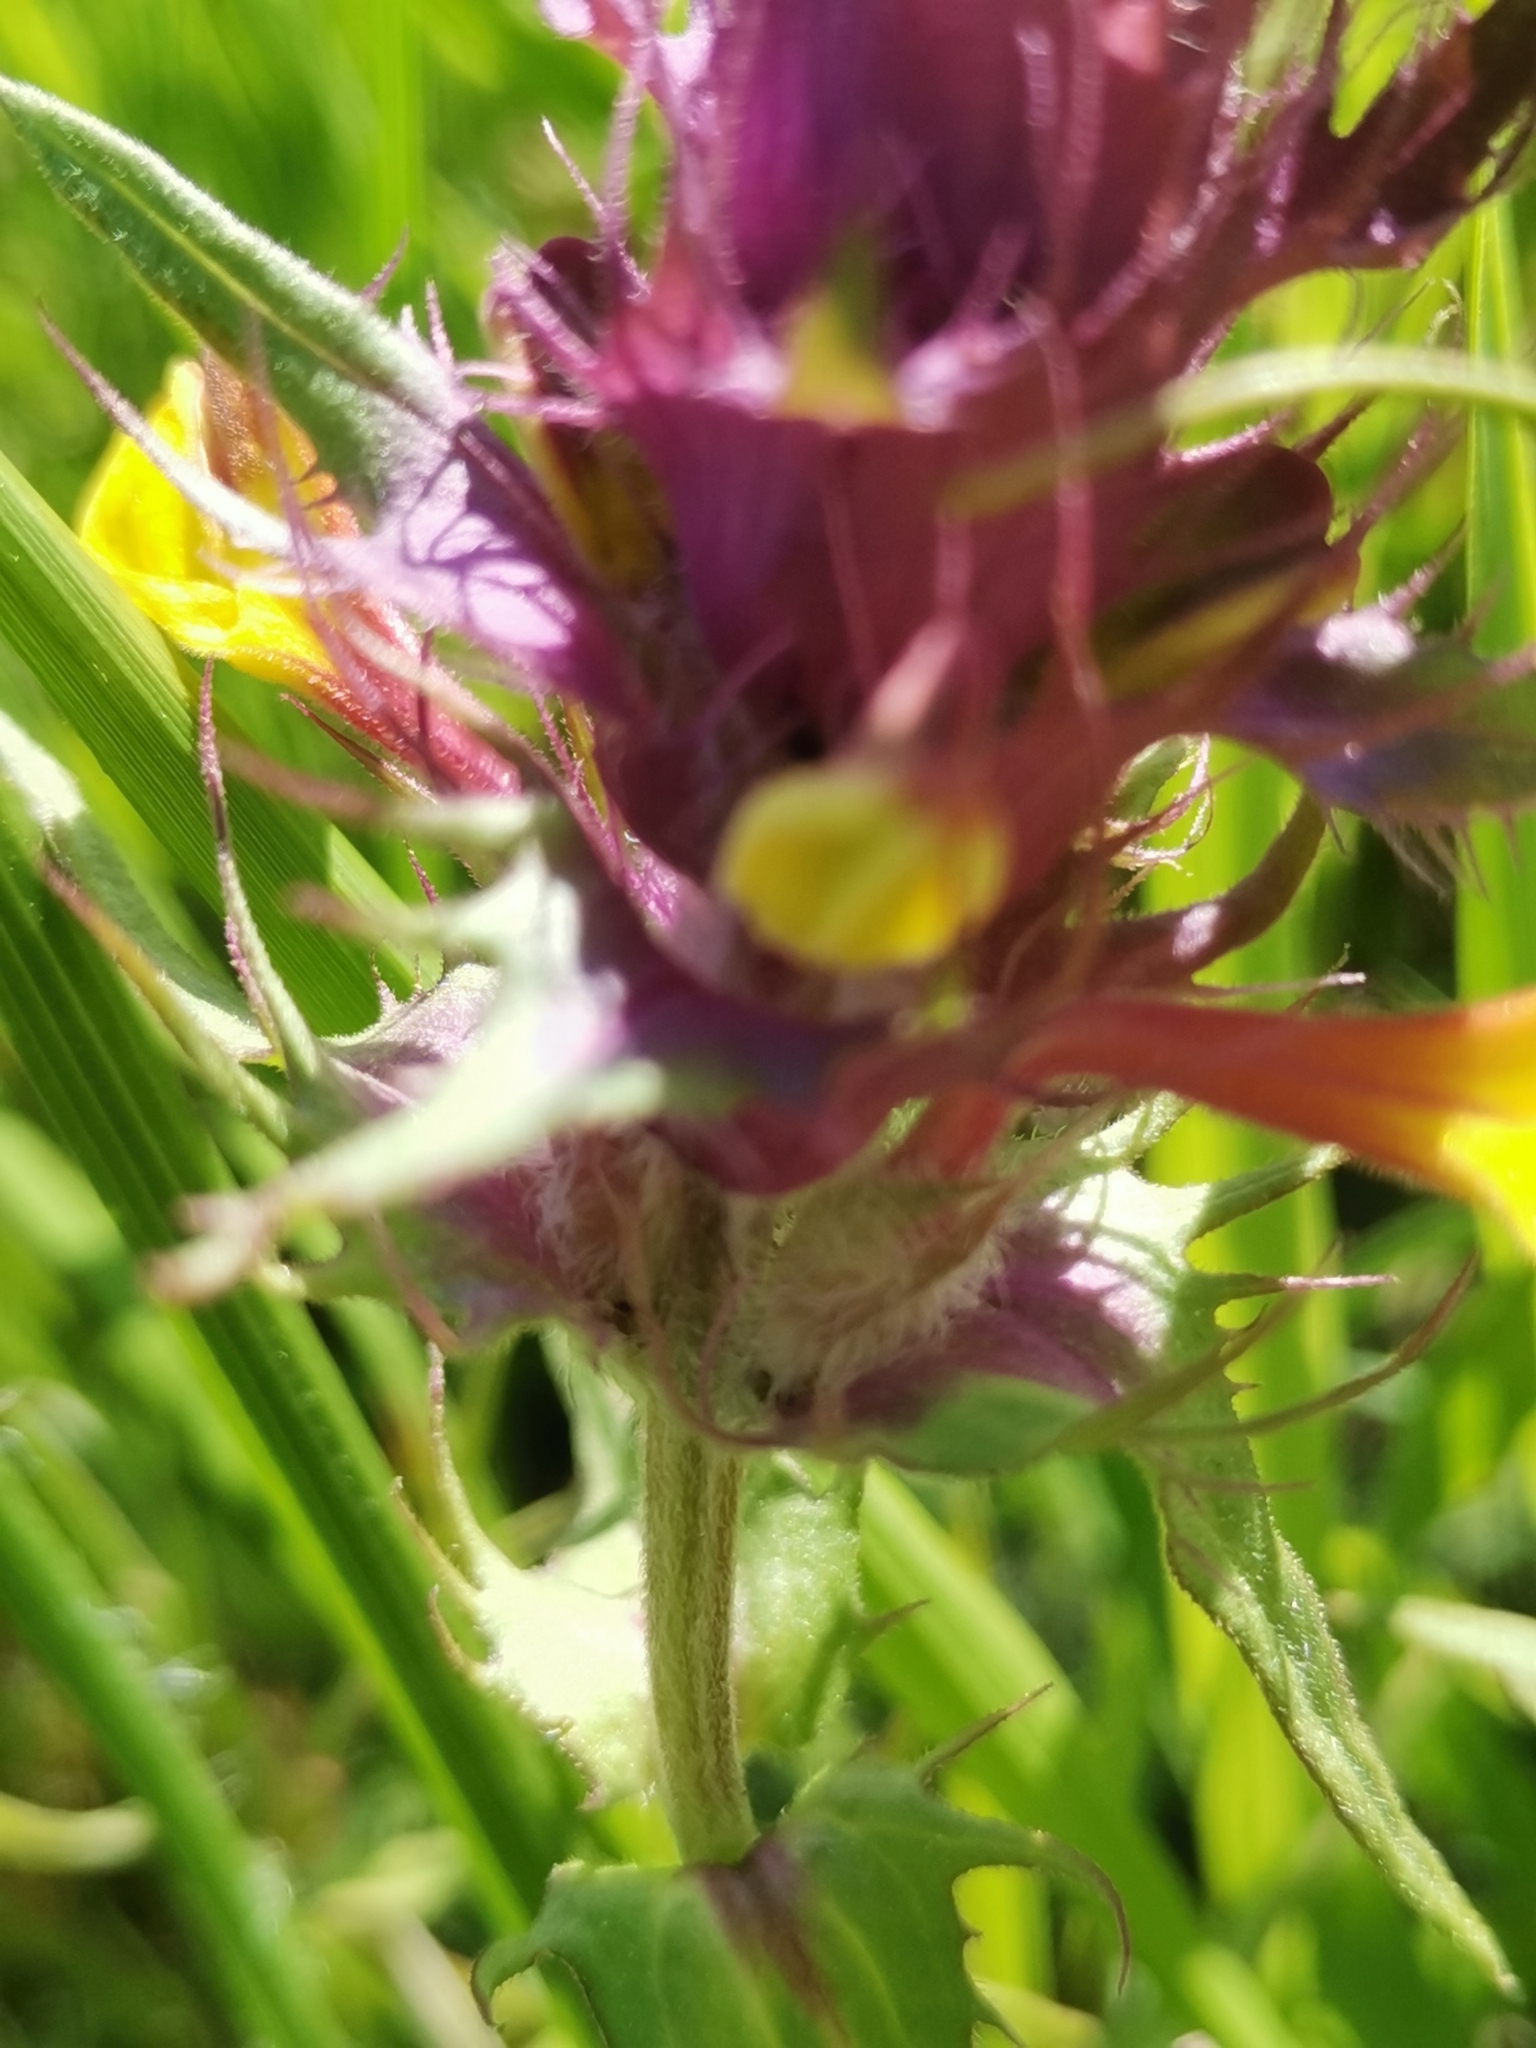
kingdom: Plantae
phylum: Tracheophyta
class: Magnoliopsida
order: Lamiales
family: Orobanchaceae
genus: Melampyrum
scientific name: Melampyrum barbatum
